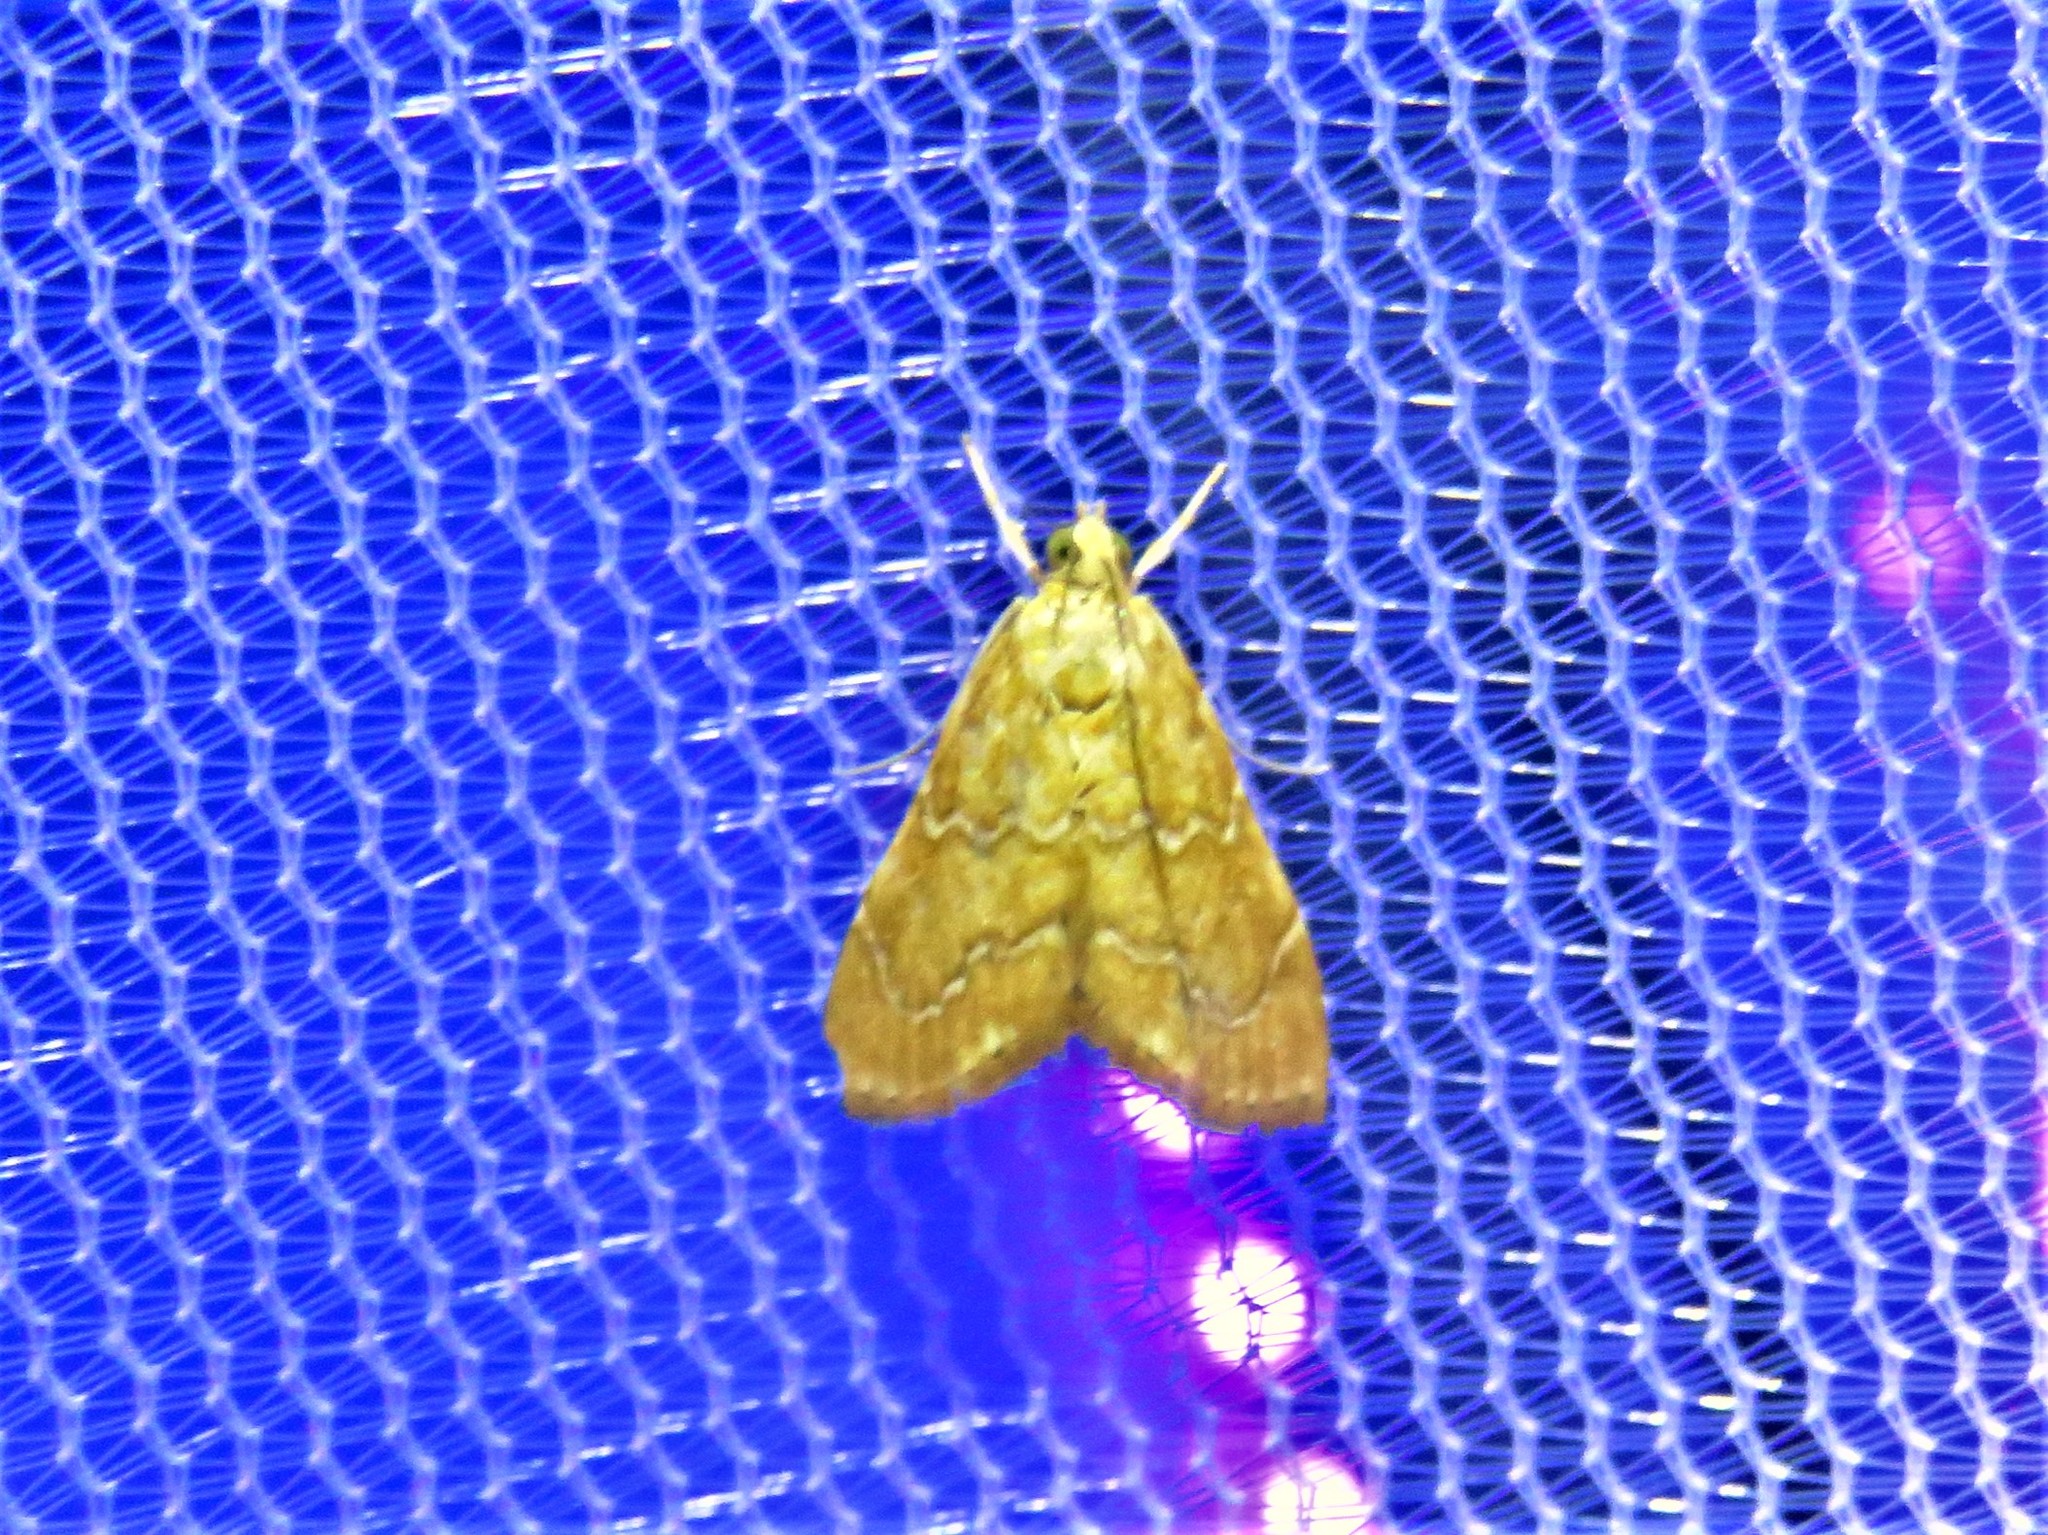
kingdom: Animalia
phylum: Arthropoda
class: Insecta
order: Lepidoptera
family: Crambidae
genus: Glaphyria
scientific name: Glaphyria sesquistrialis
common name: White-roped glaphyria
